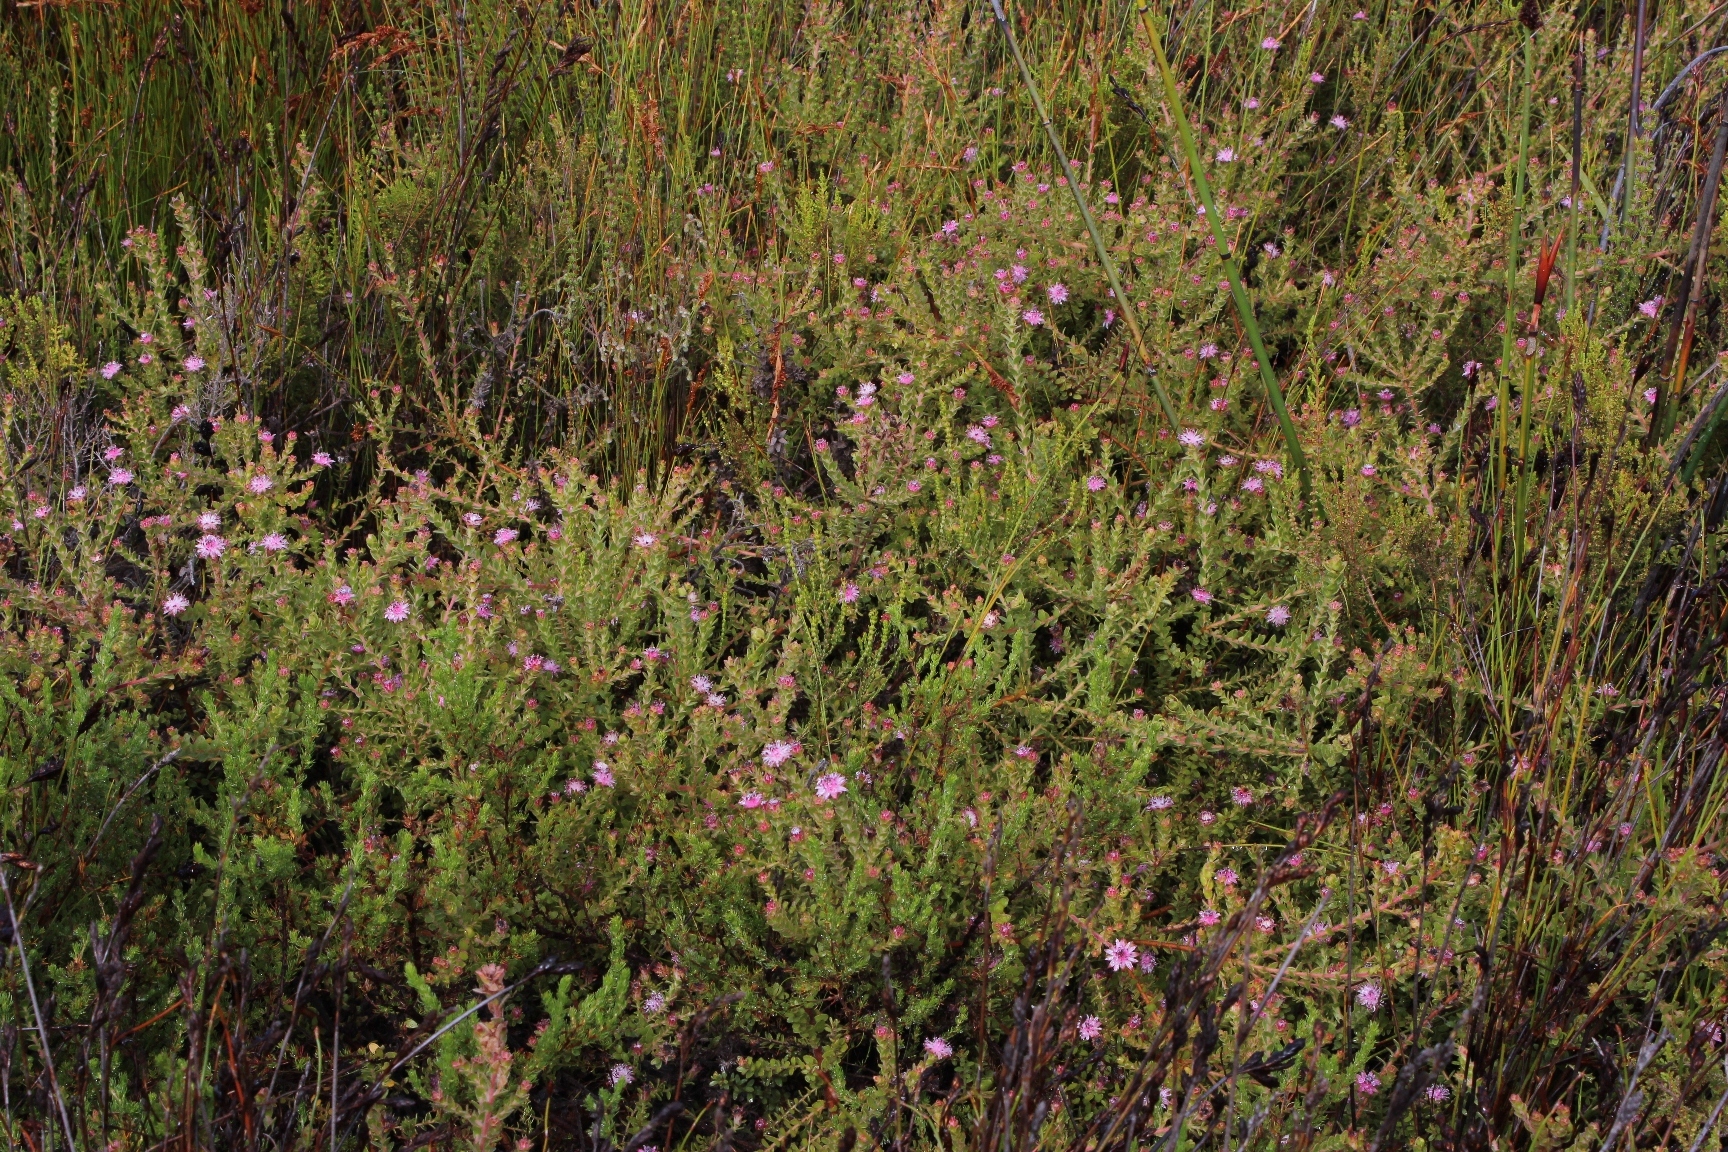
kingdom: Plantae
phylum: Tracheophyta
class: Magnoliopsida
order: Proteales
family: Proteaceae
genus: Diastella
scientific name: Diastella divaricata
